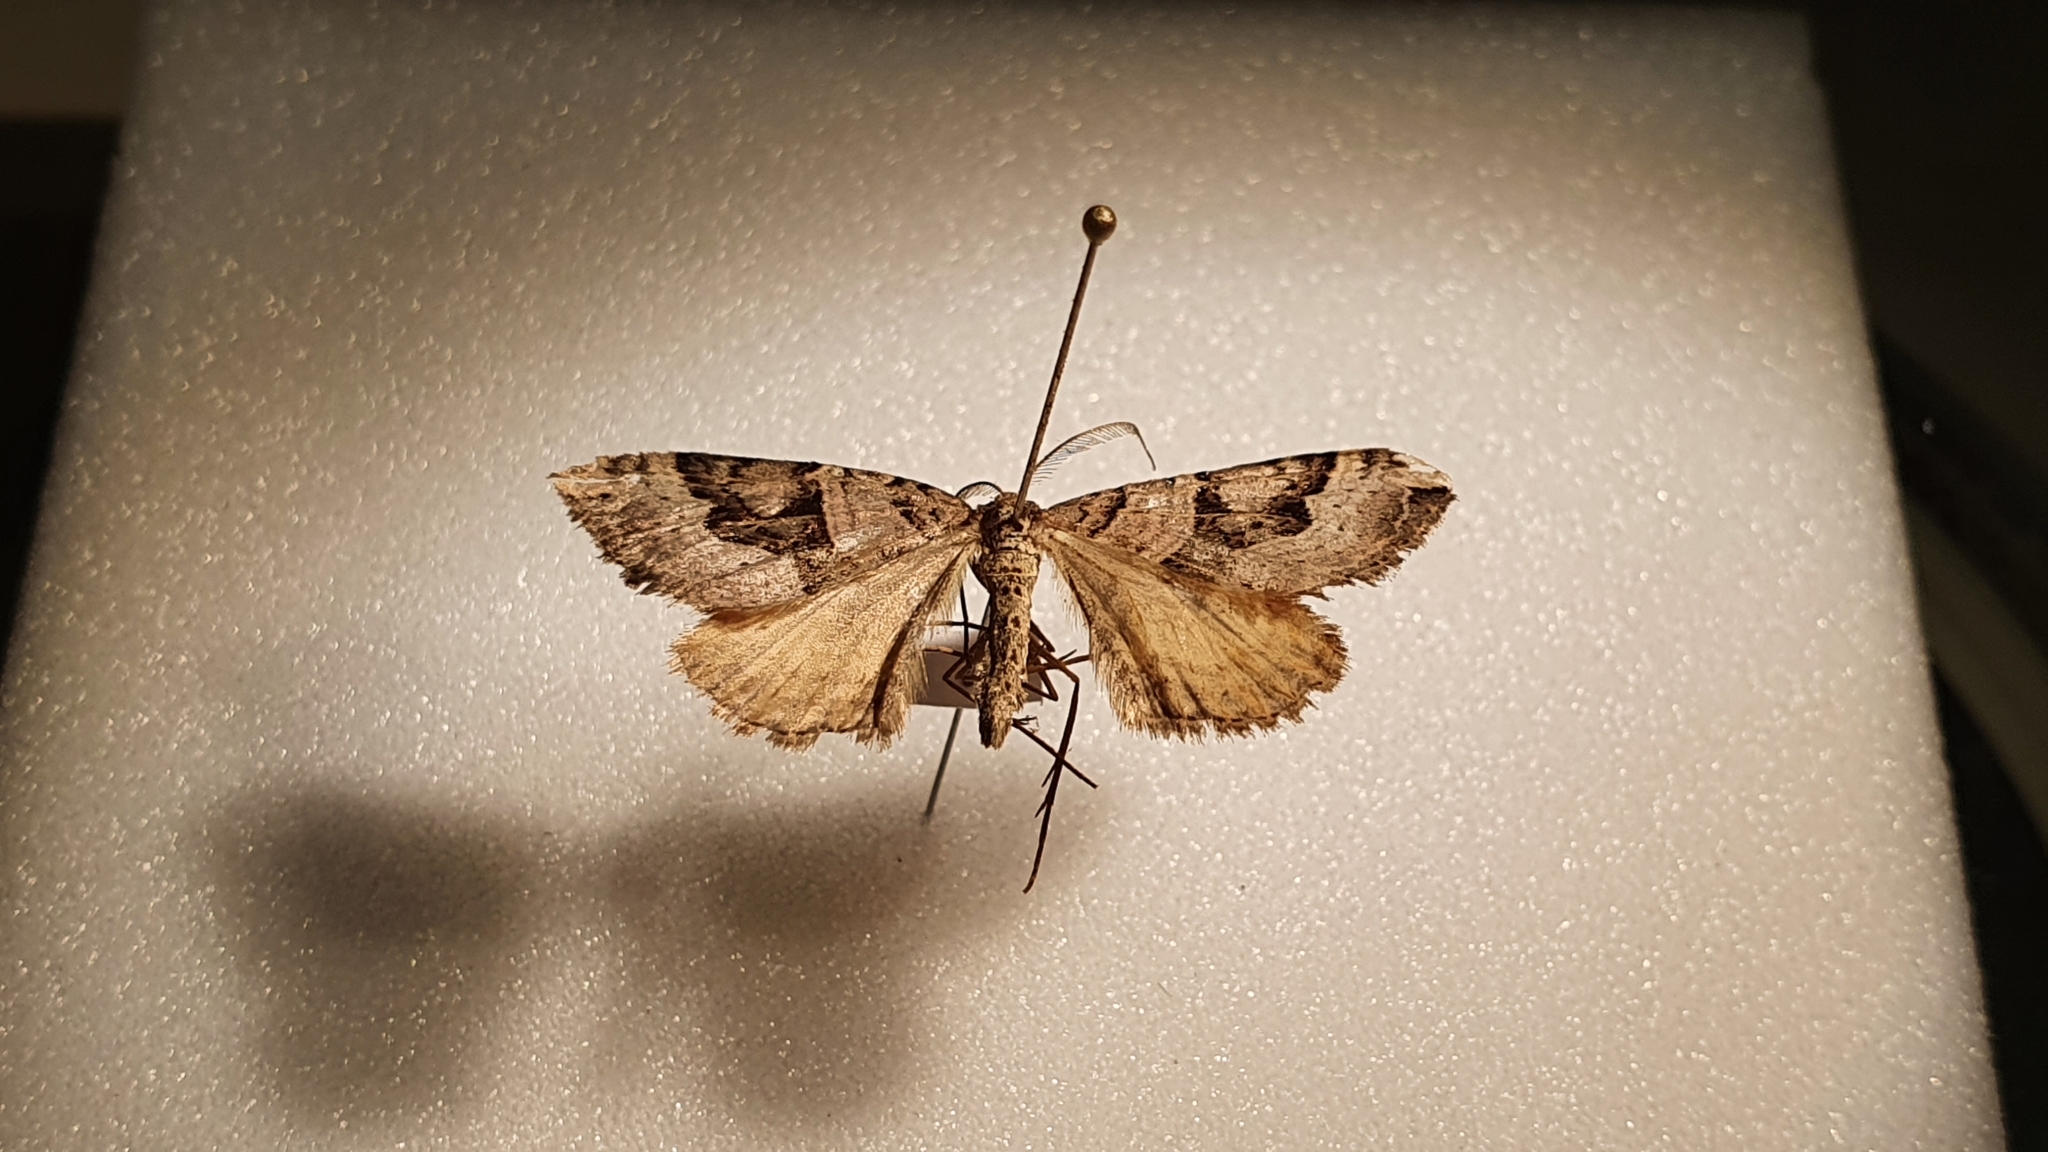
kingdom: Animalia
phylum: Arthropoda
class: Insecta
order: Lepidoptera
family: Geometridae
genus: Xanthorhoe
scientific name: Xanthorhoe semifissata
